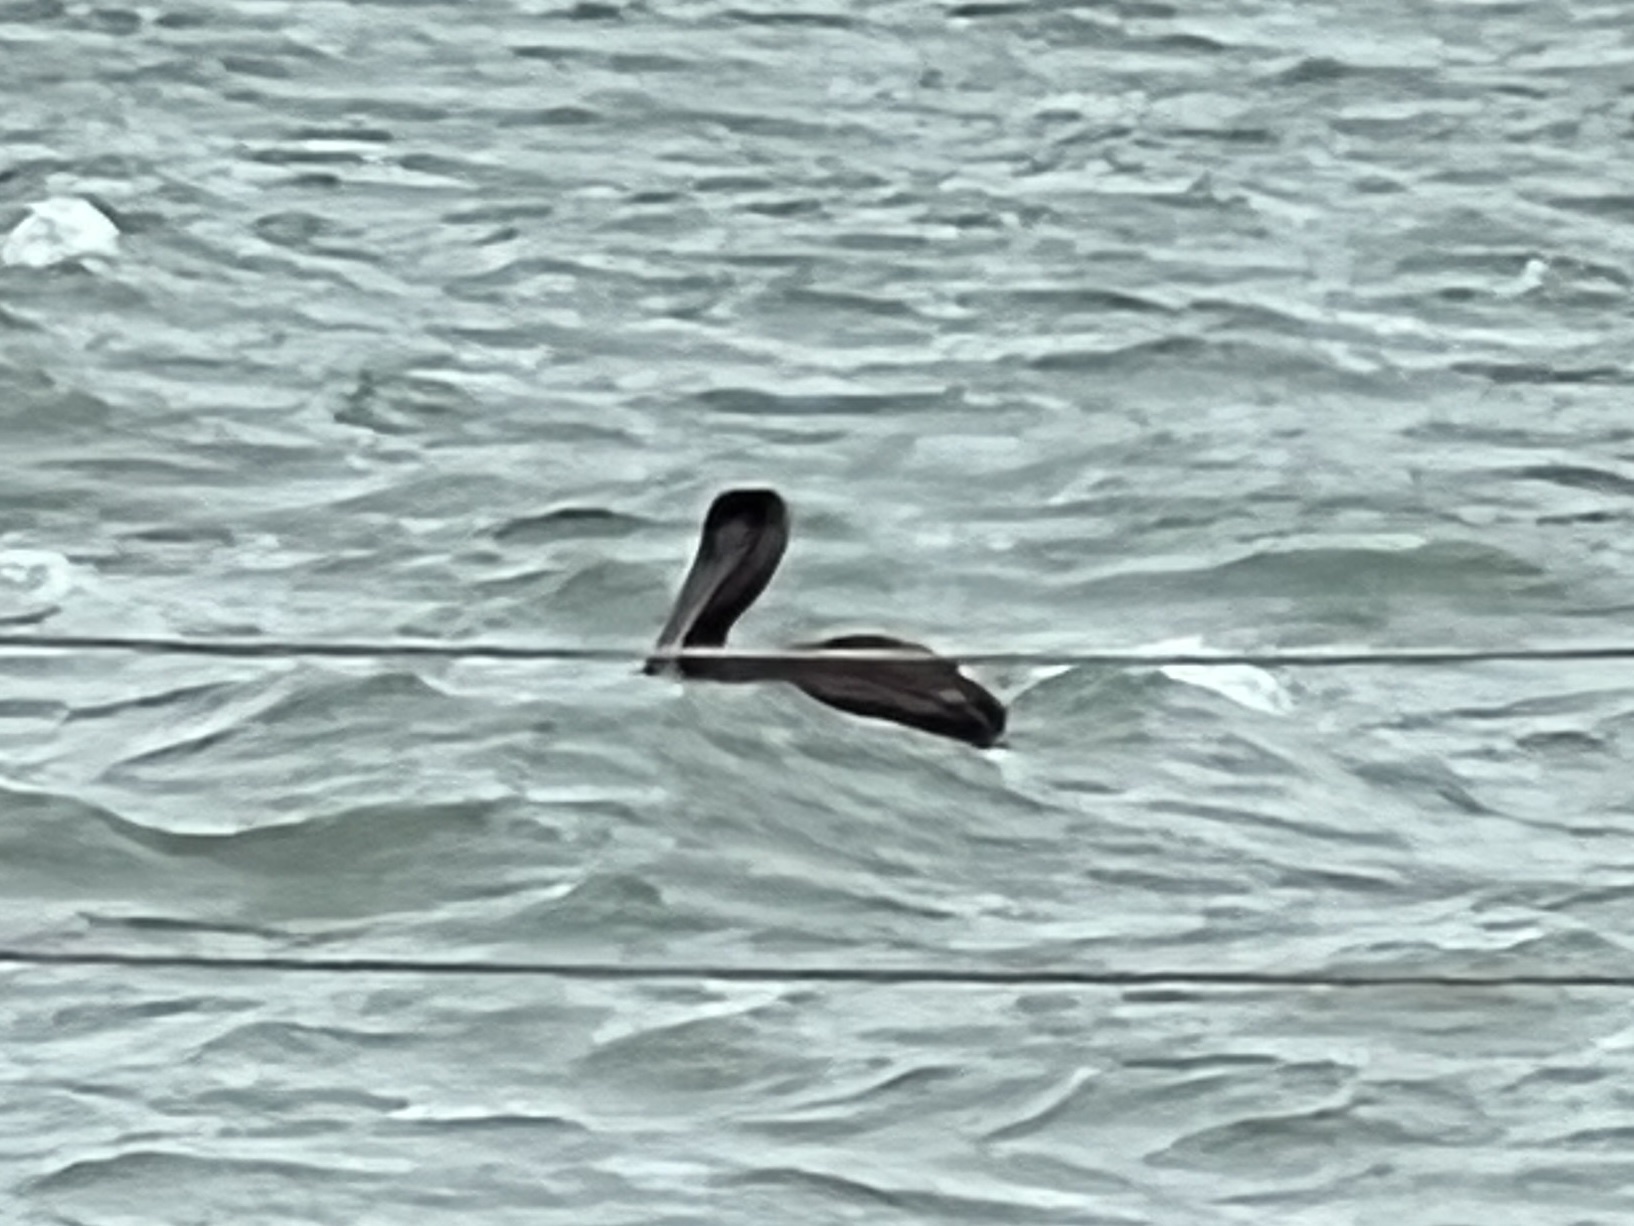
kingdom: Animalia
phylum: Chordata
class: Aves
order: Pelecaniformes
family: Pelecanidae
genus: Pelecanus
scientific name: Pelecanus occidentalis
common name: Brown pelican
